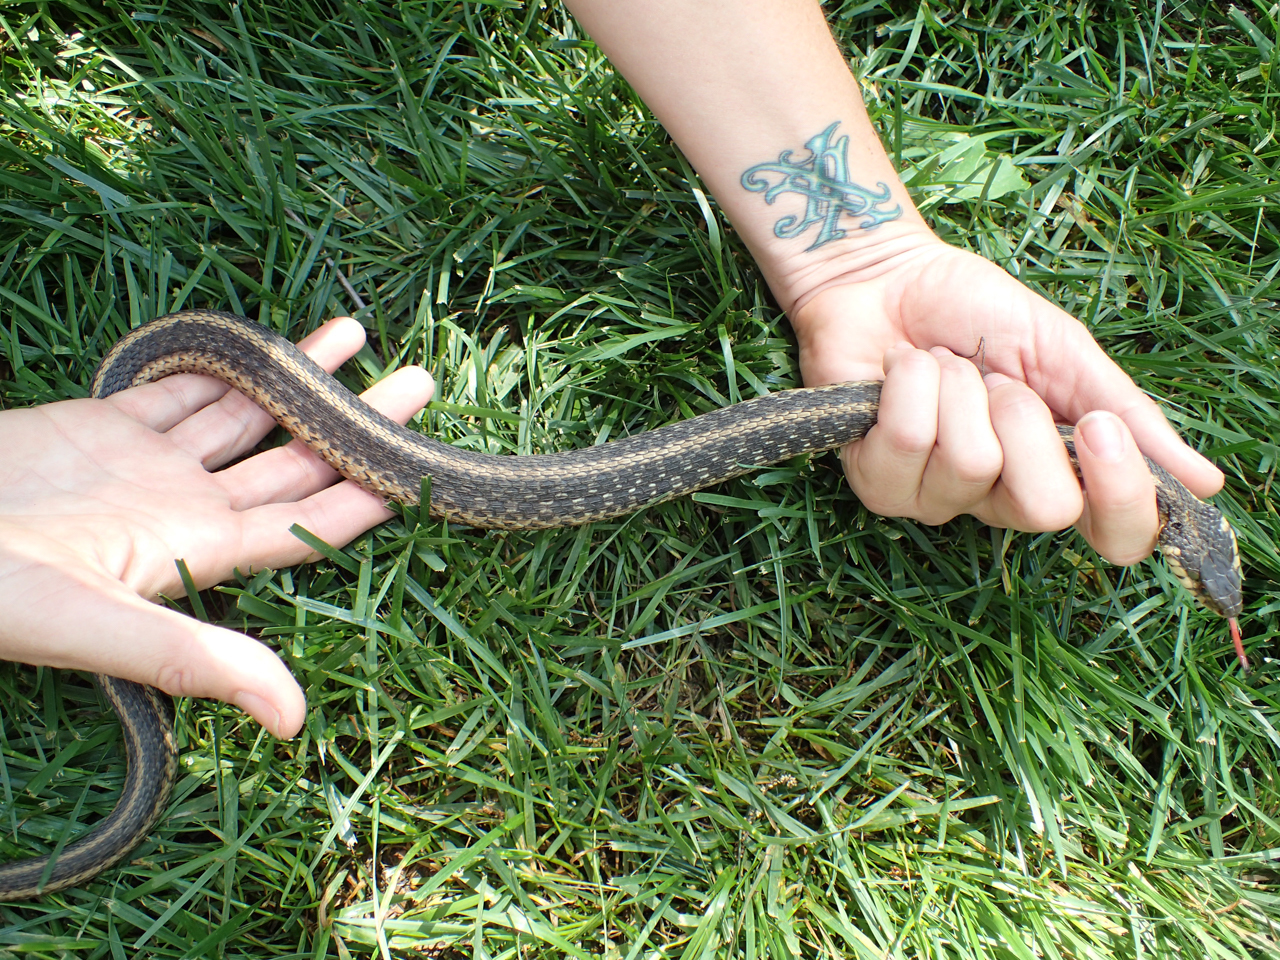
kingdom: Animalia
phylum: Chordata
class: Squamata
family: Colubridae
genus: Thamnophis
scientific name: Thamnophis sirtalis
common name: Common garter snake
